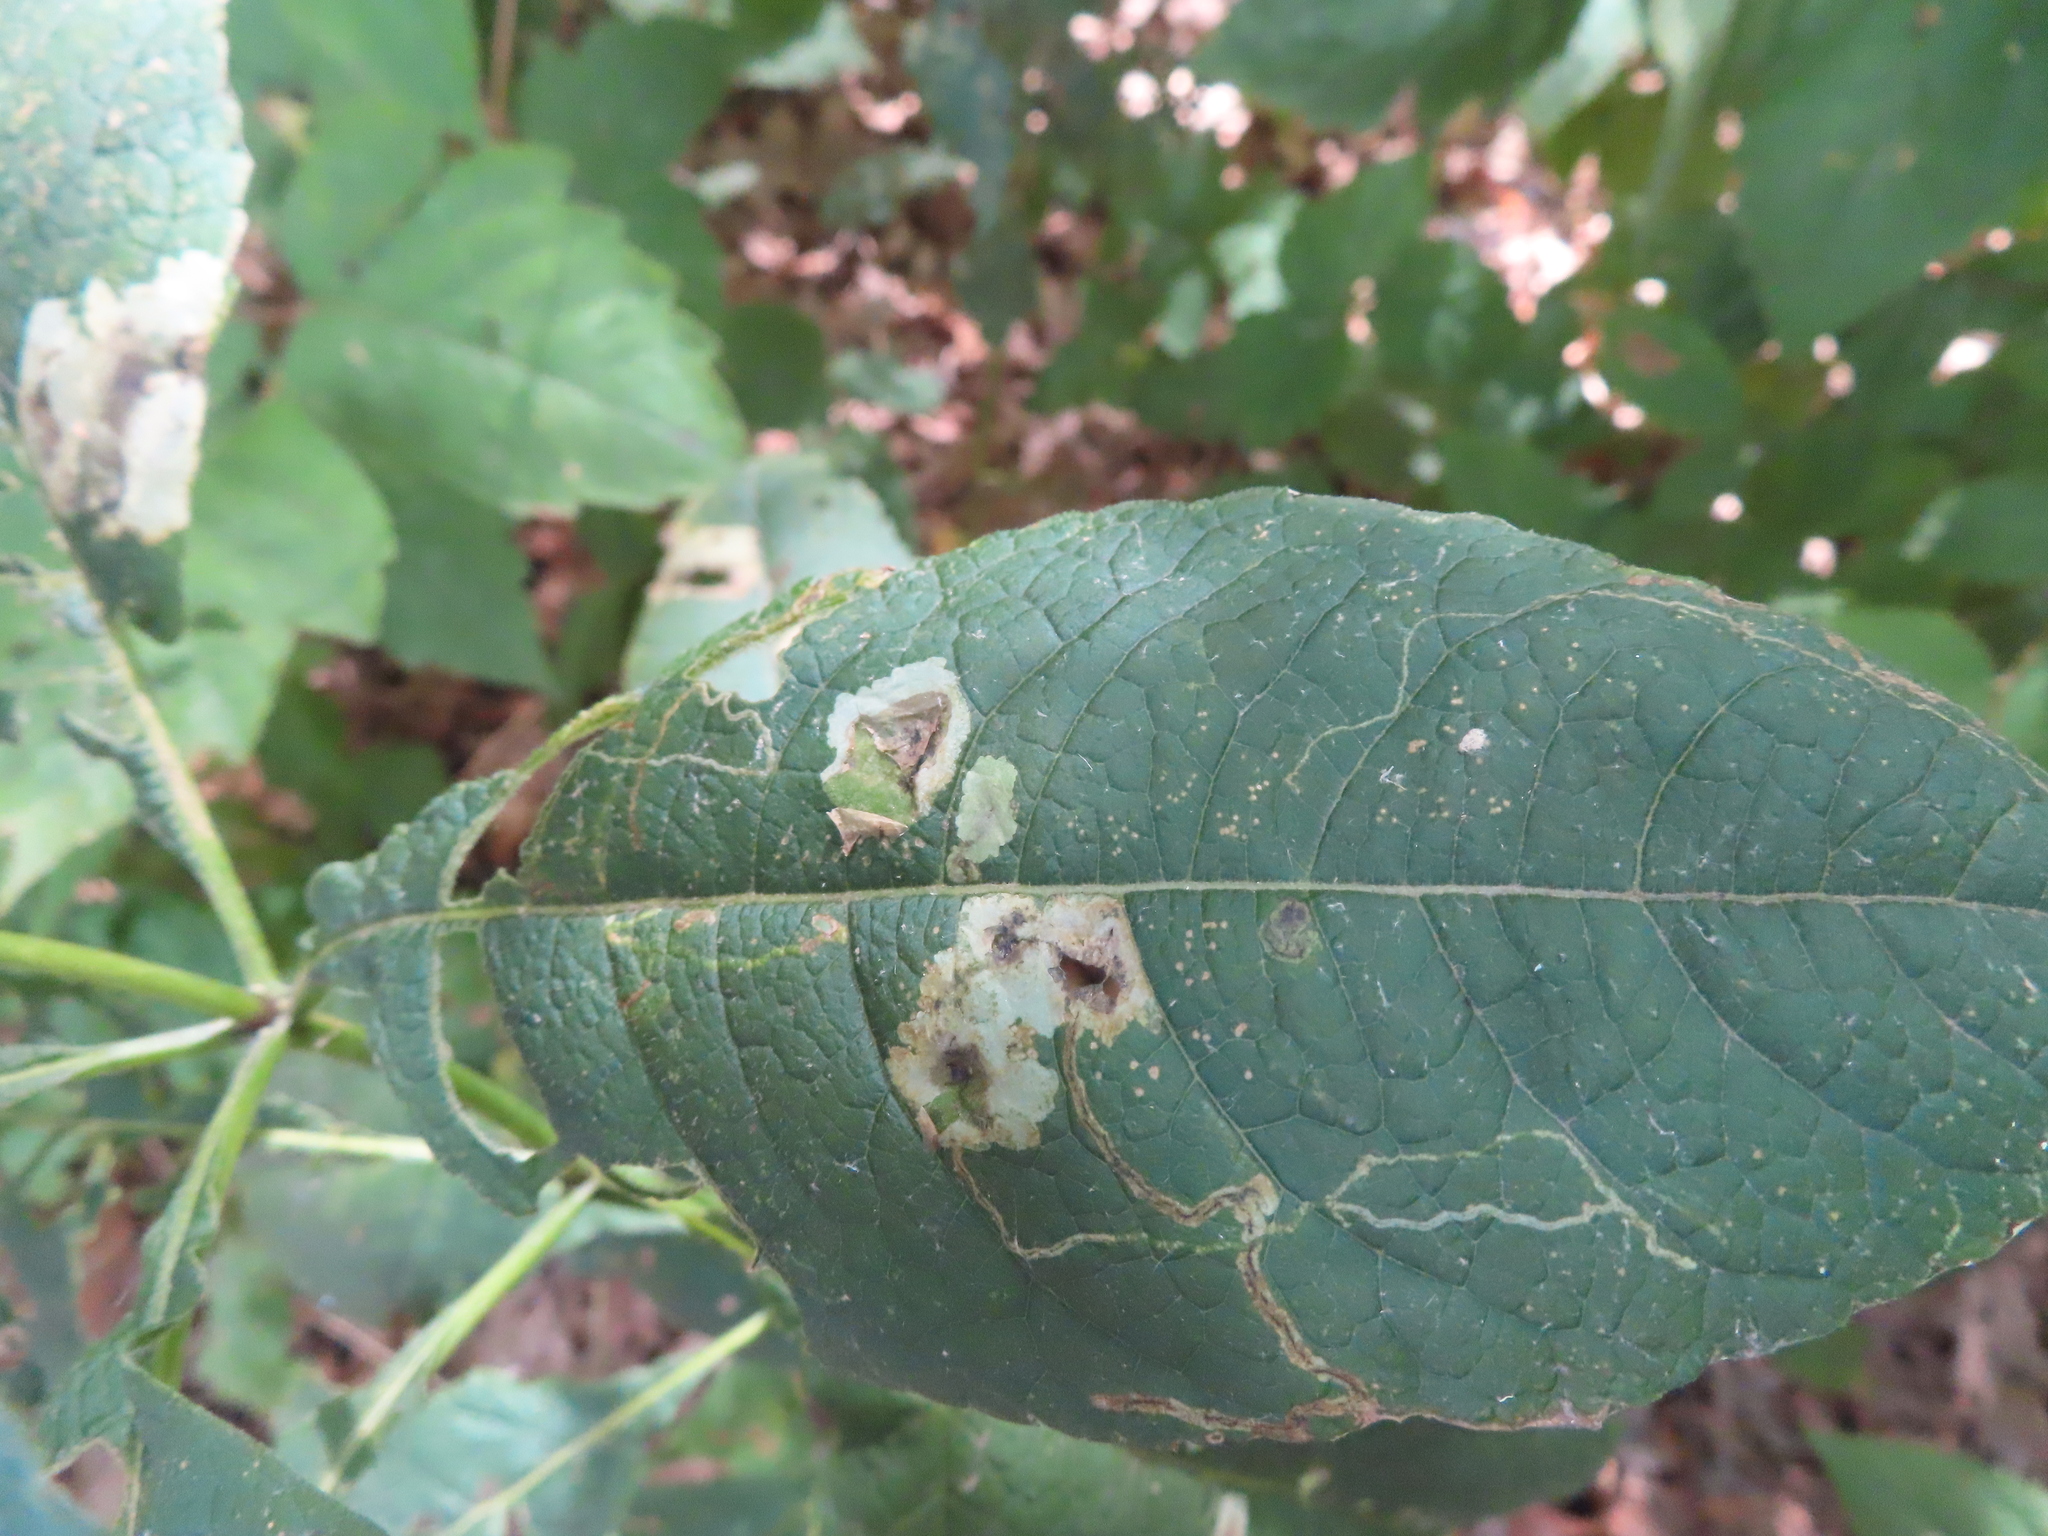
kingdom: Animalia
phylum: Arthropoda
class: Insecta
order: Diptera
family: Agromyzidae
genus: Calycomyza
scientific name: Calycomyza flavinotum
